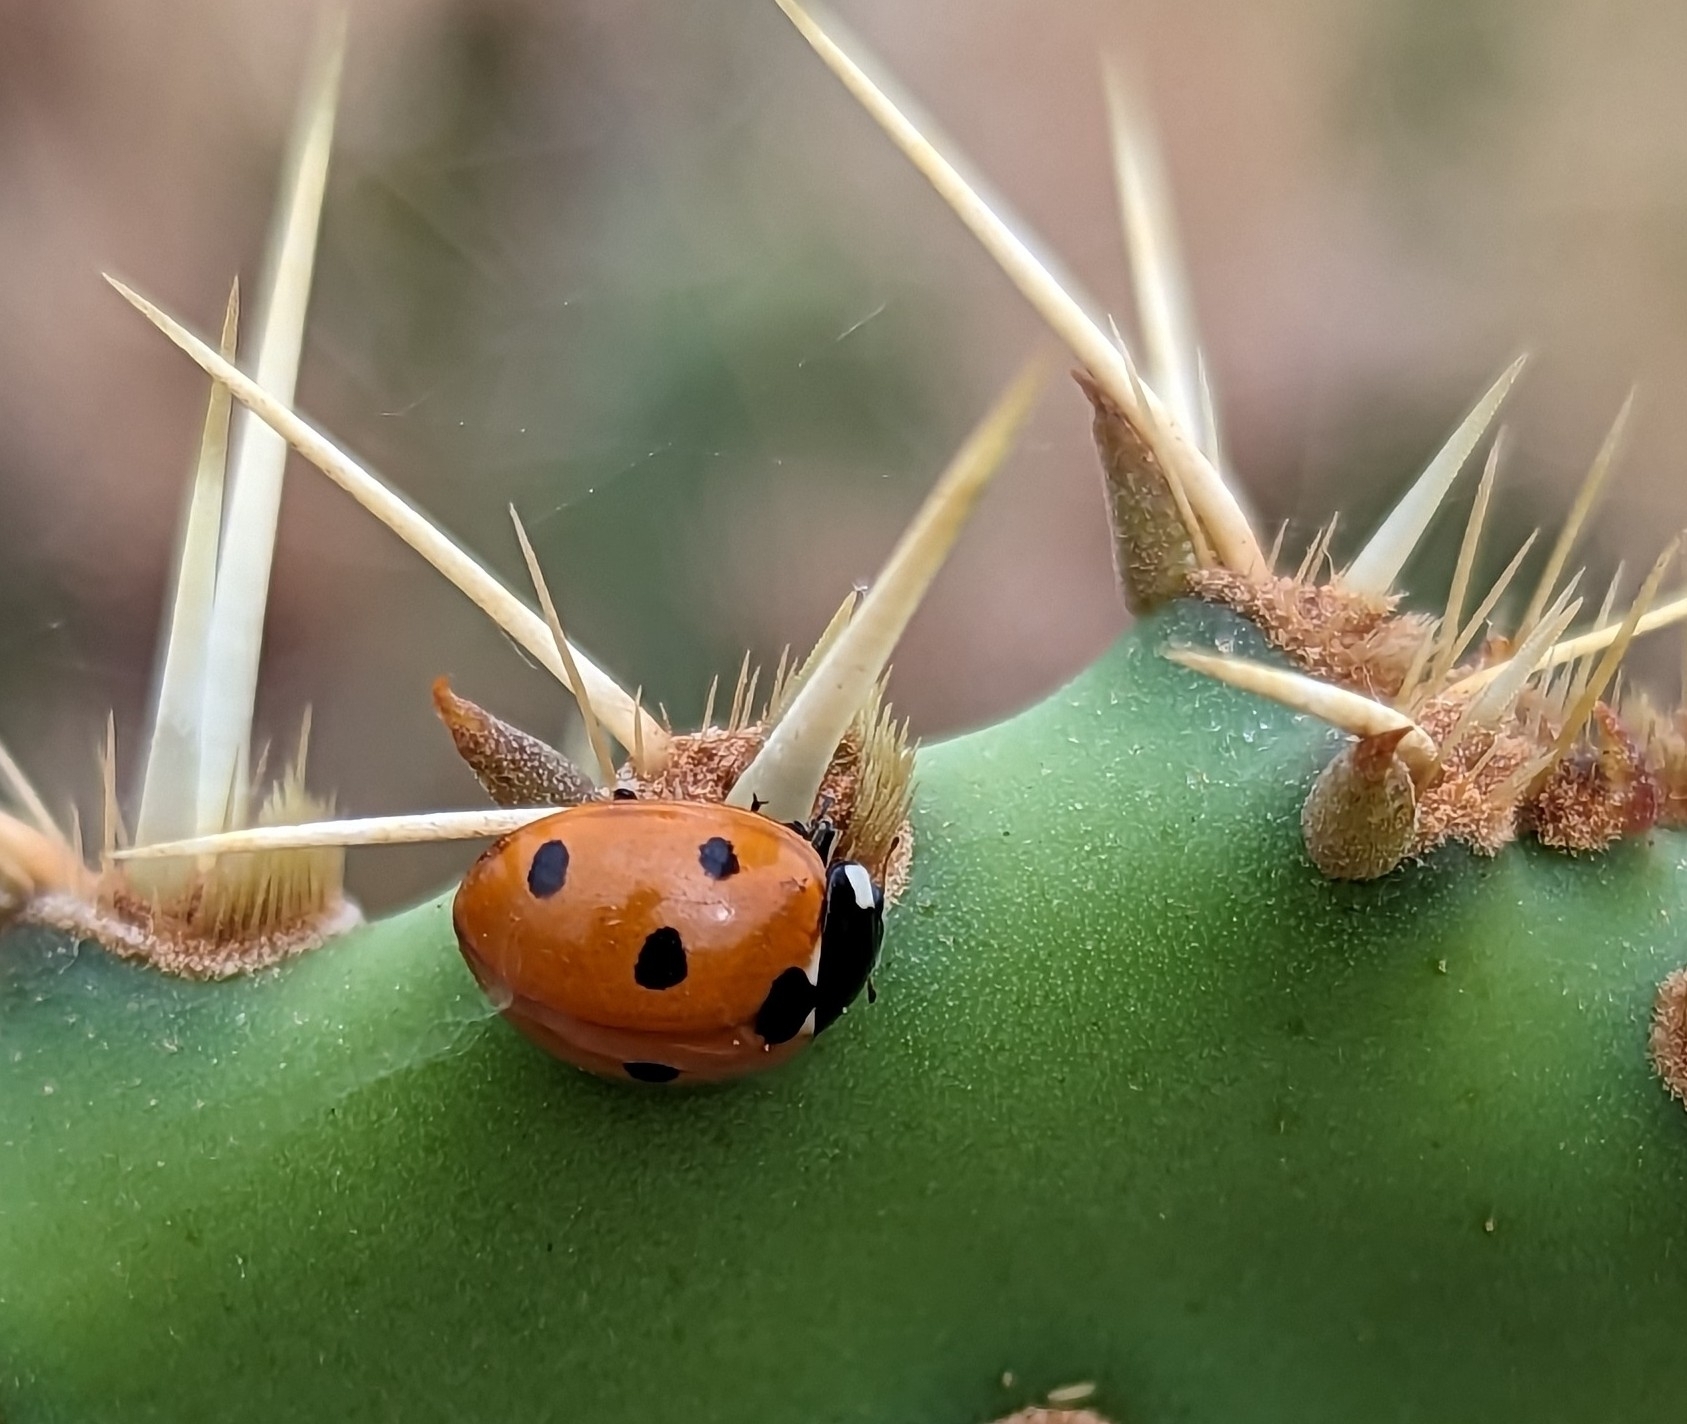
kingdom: Animalia
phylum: Arthropoda
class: Insecta
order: Coleoptera
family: Coccinellidae
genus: Coccinella
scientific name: Coccinella septempunctata
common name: Sevenspotted lady beetle
